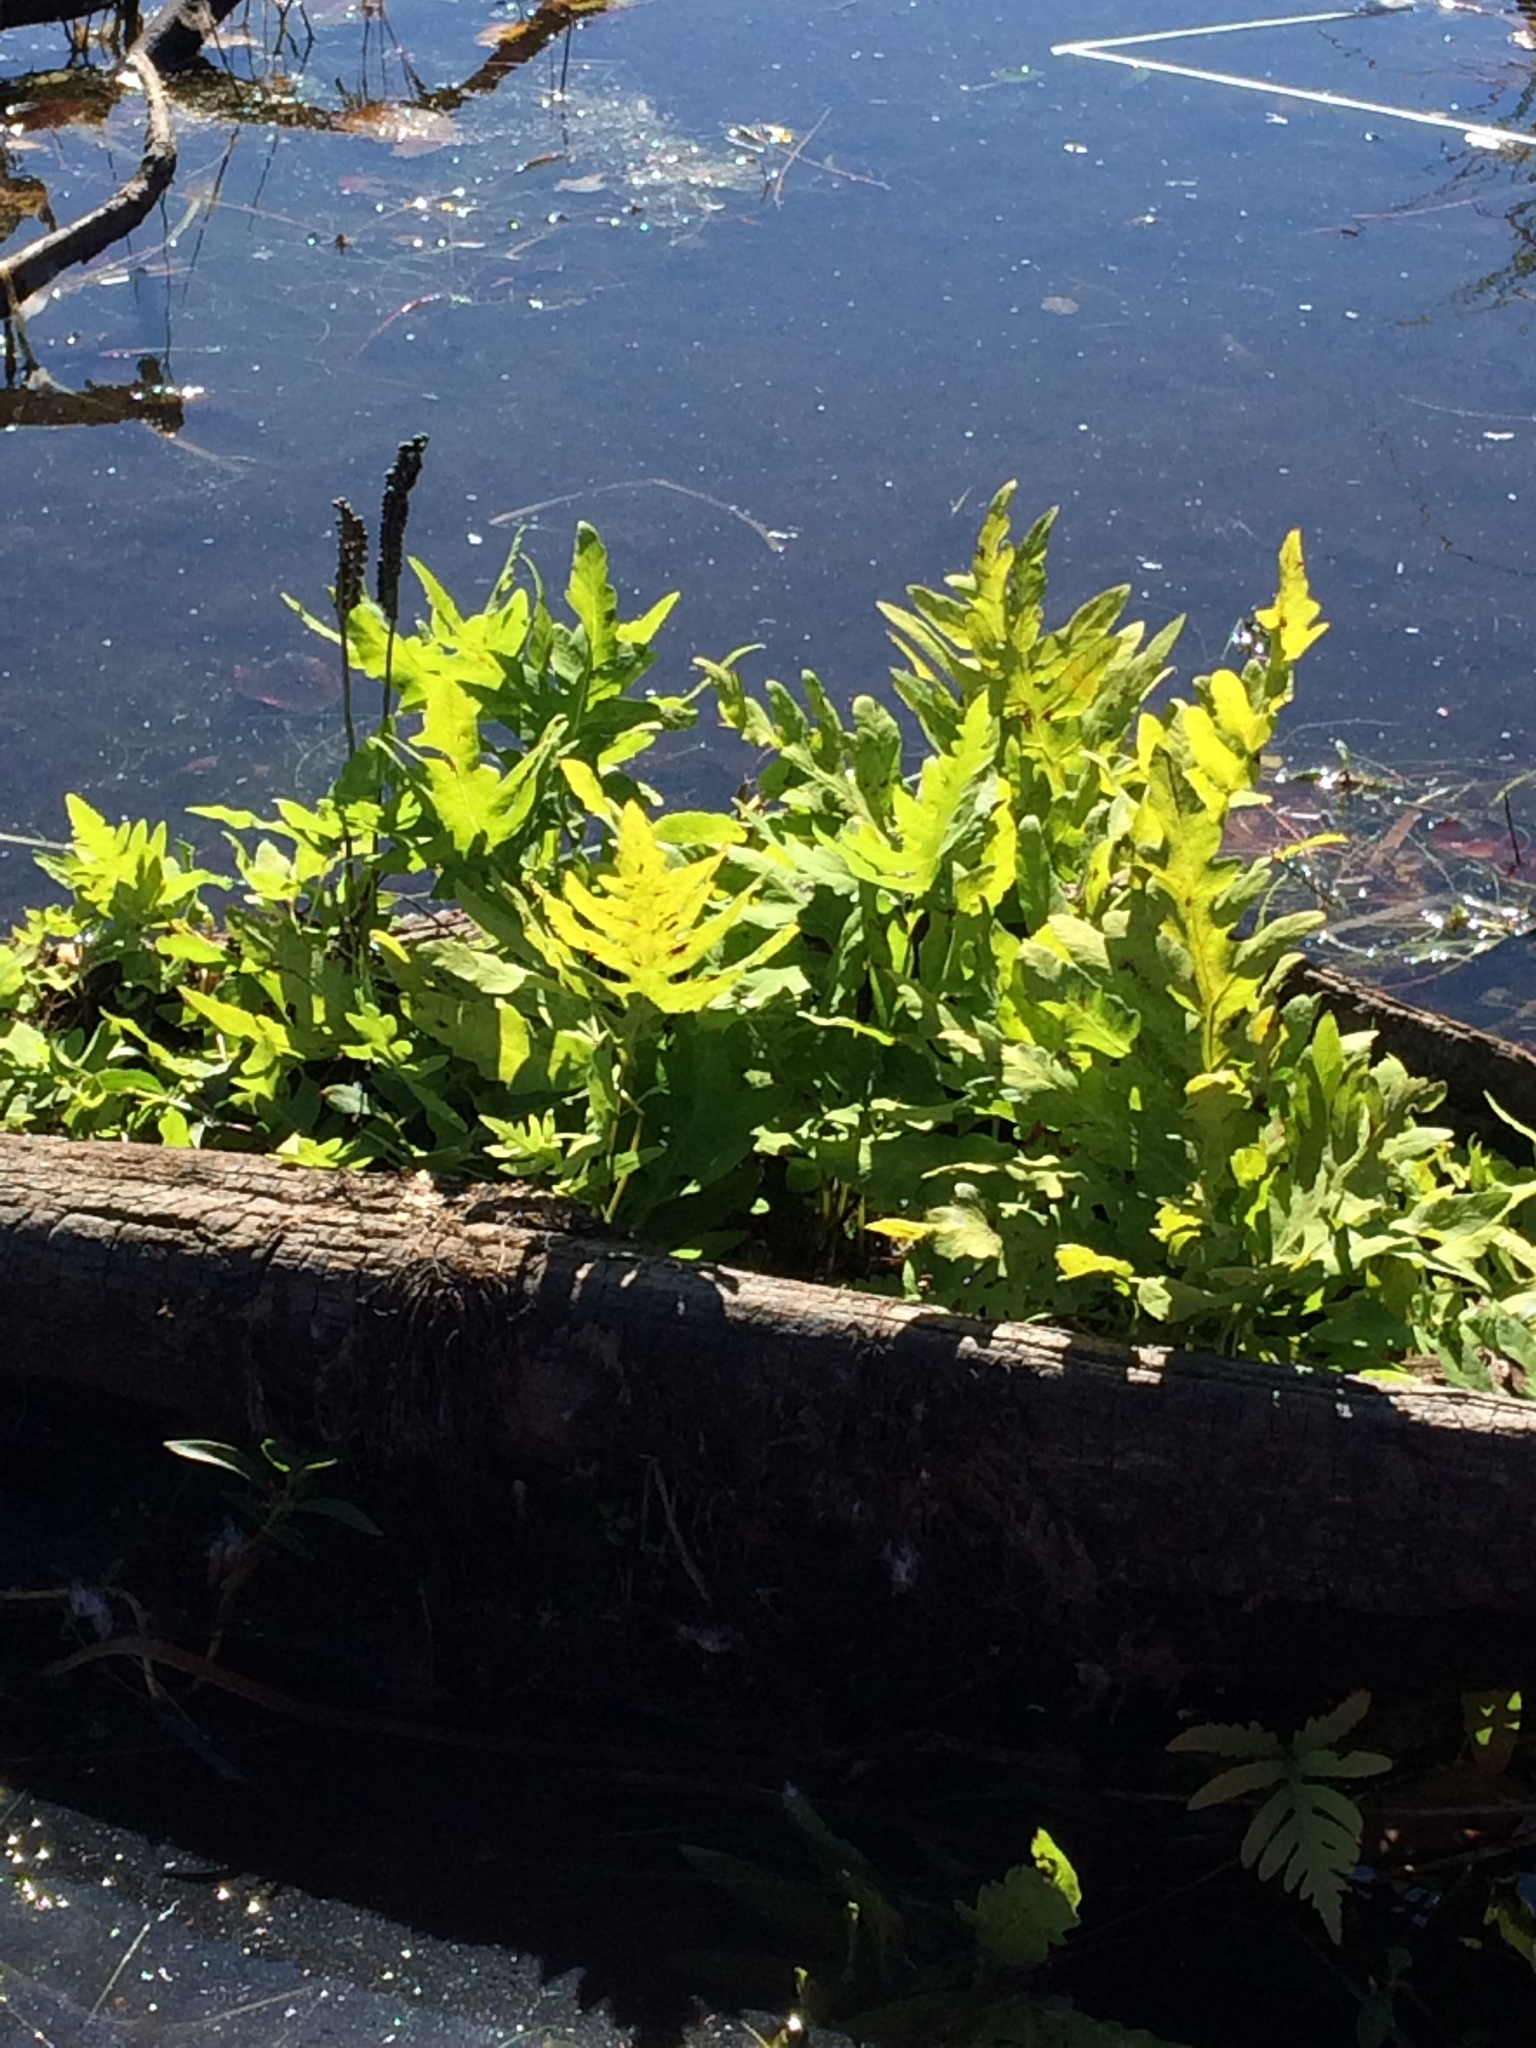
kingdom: Plantae
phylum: Tracheophyta
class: Polypodiopsida
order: Polypodiales
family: Onocleaceae
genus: Onoclea
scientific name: Onoclea sensibilis
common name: Sensitive fern
